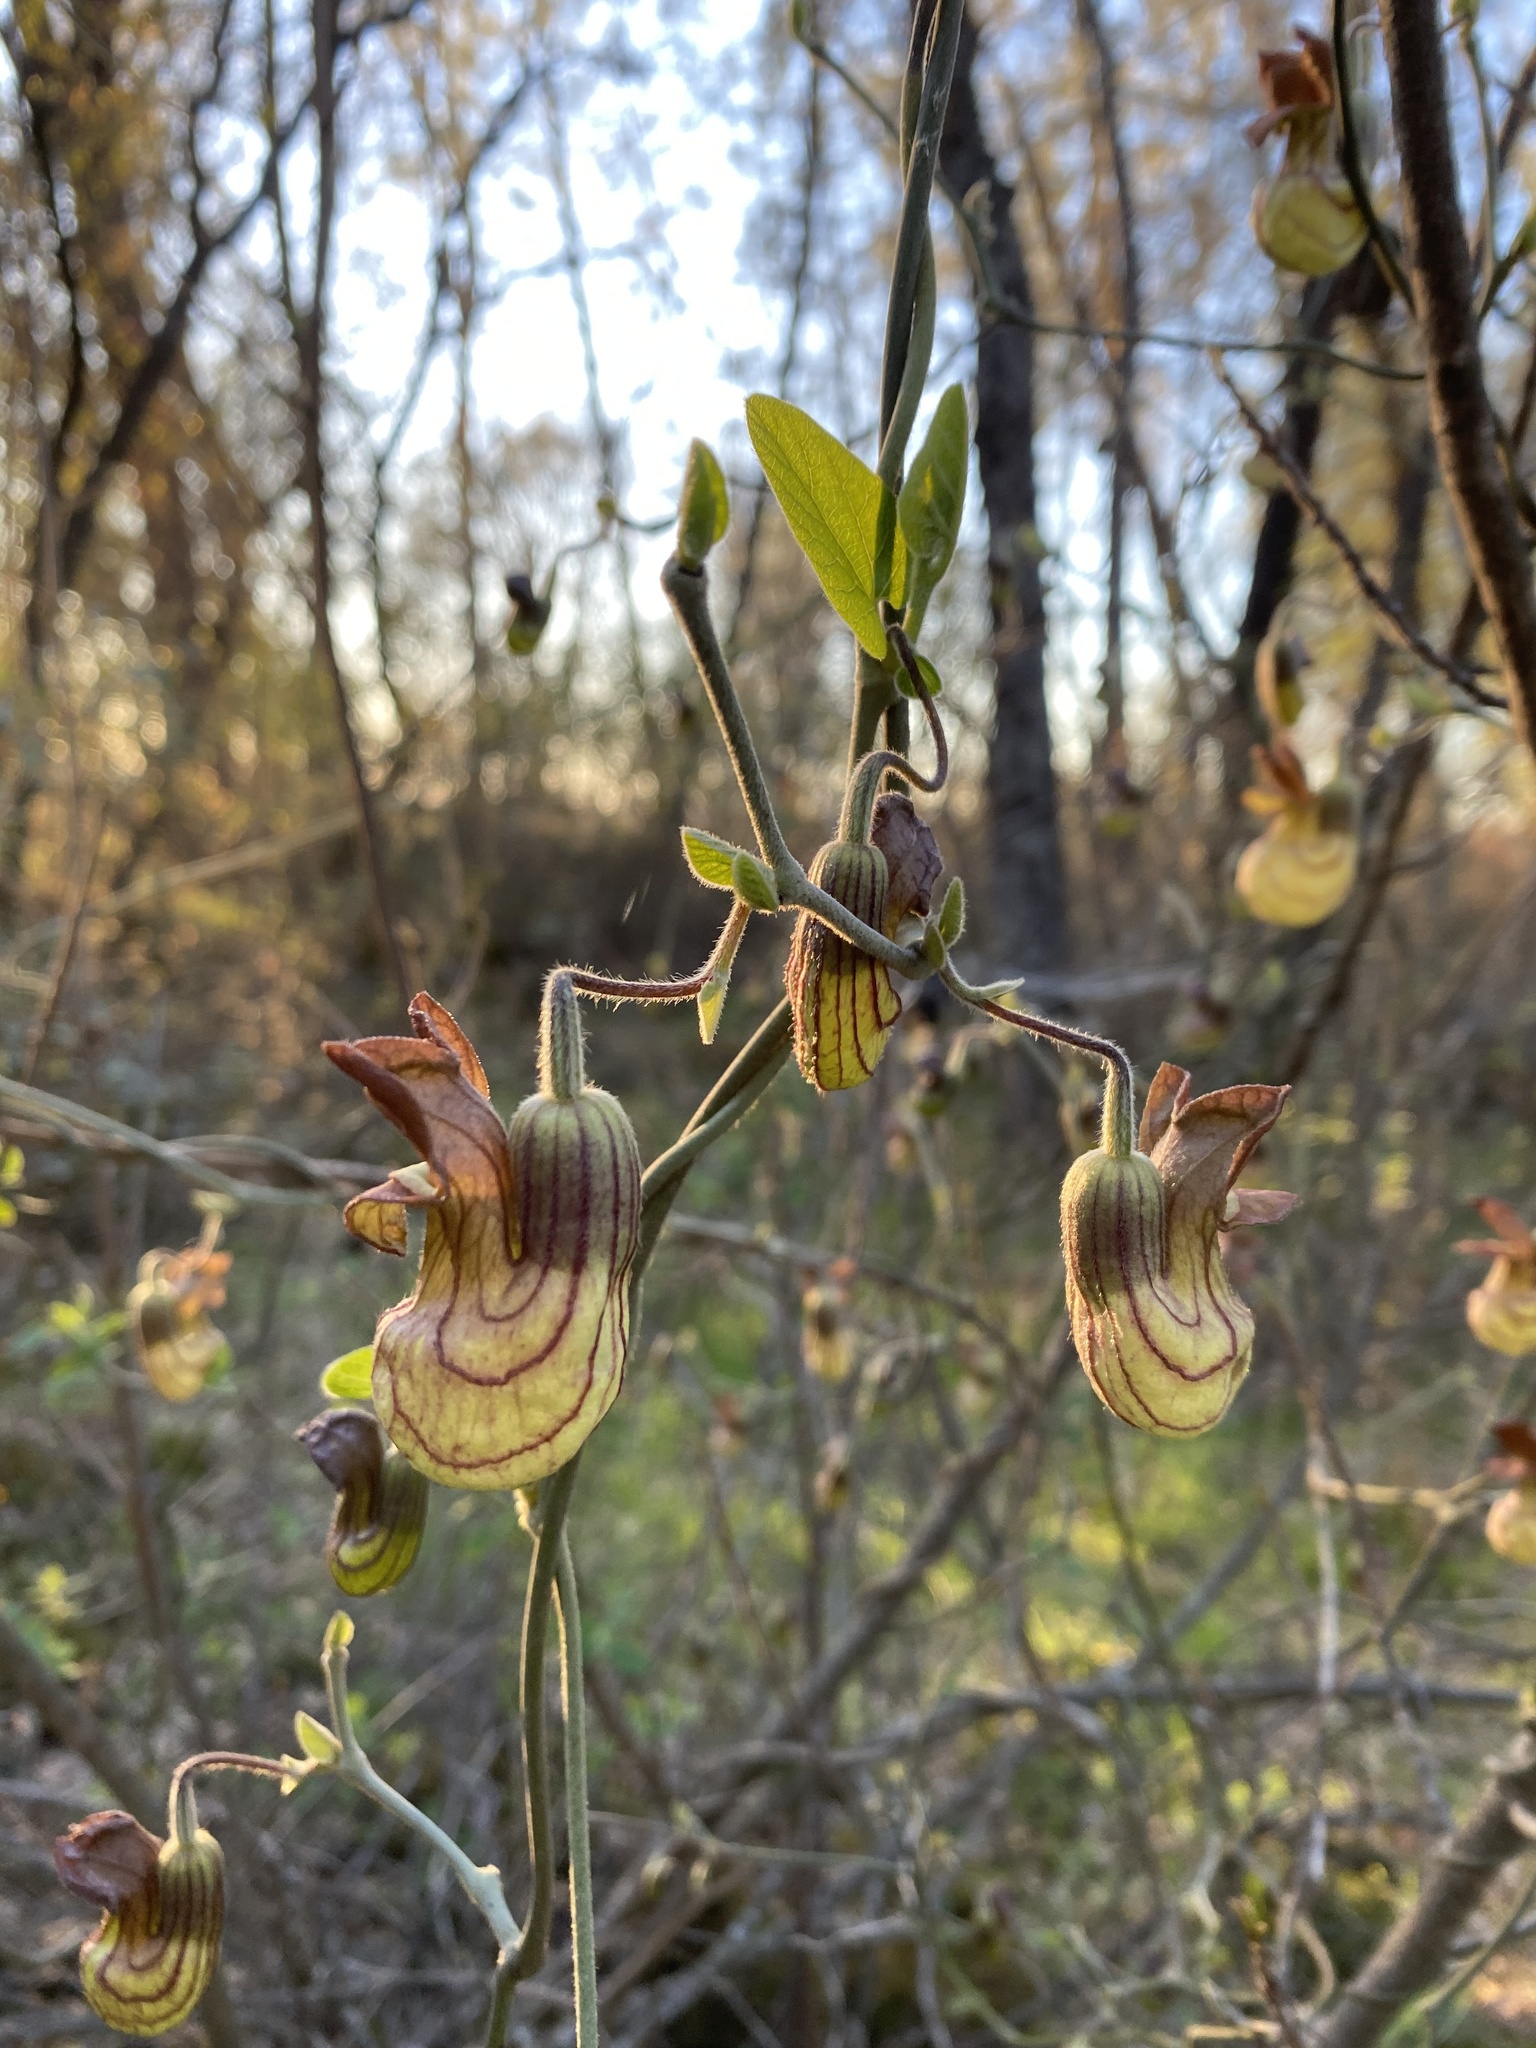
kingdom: Plantae
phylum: Tracheophyta
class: Magnoliopsida
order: Piperales
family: Aristolochiaceae
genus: Isotrema
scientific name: Isotrema californicum
